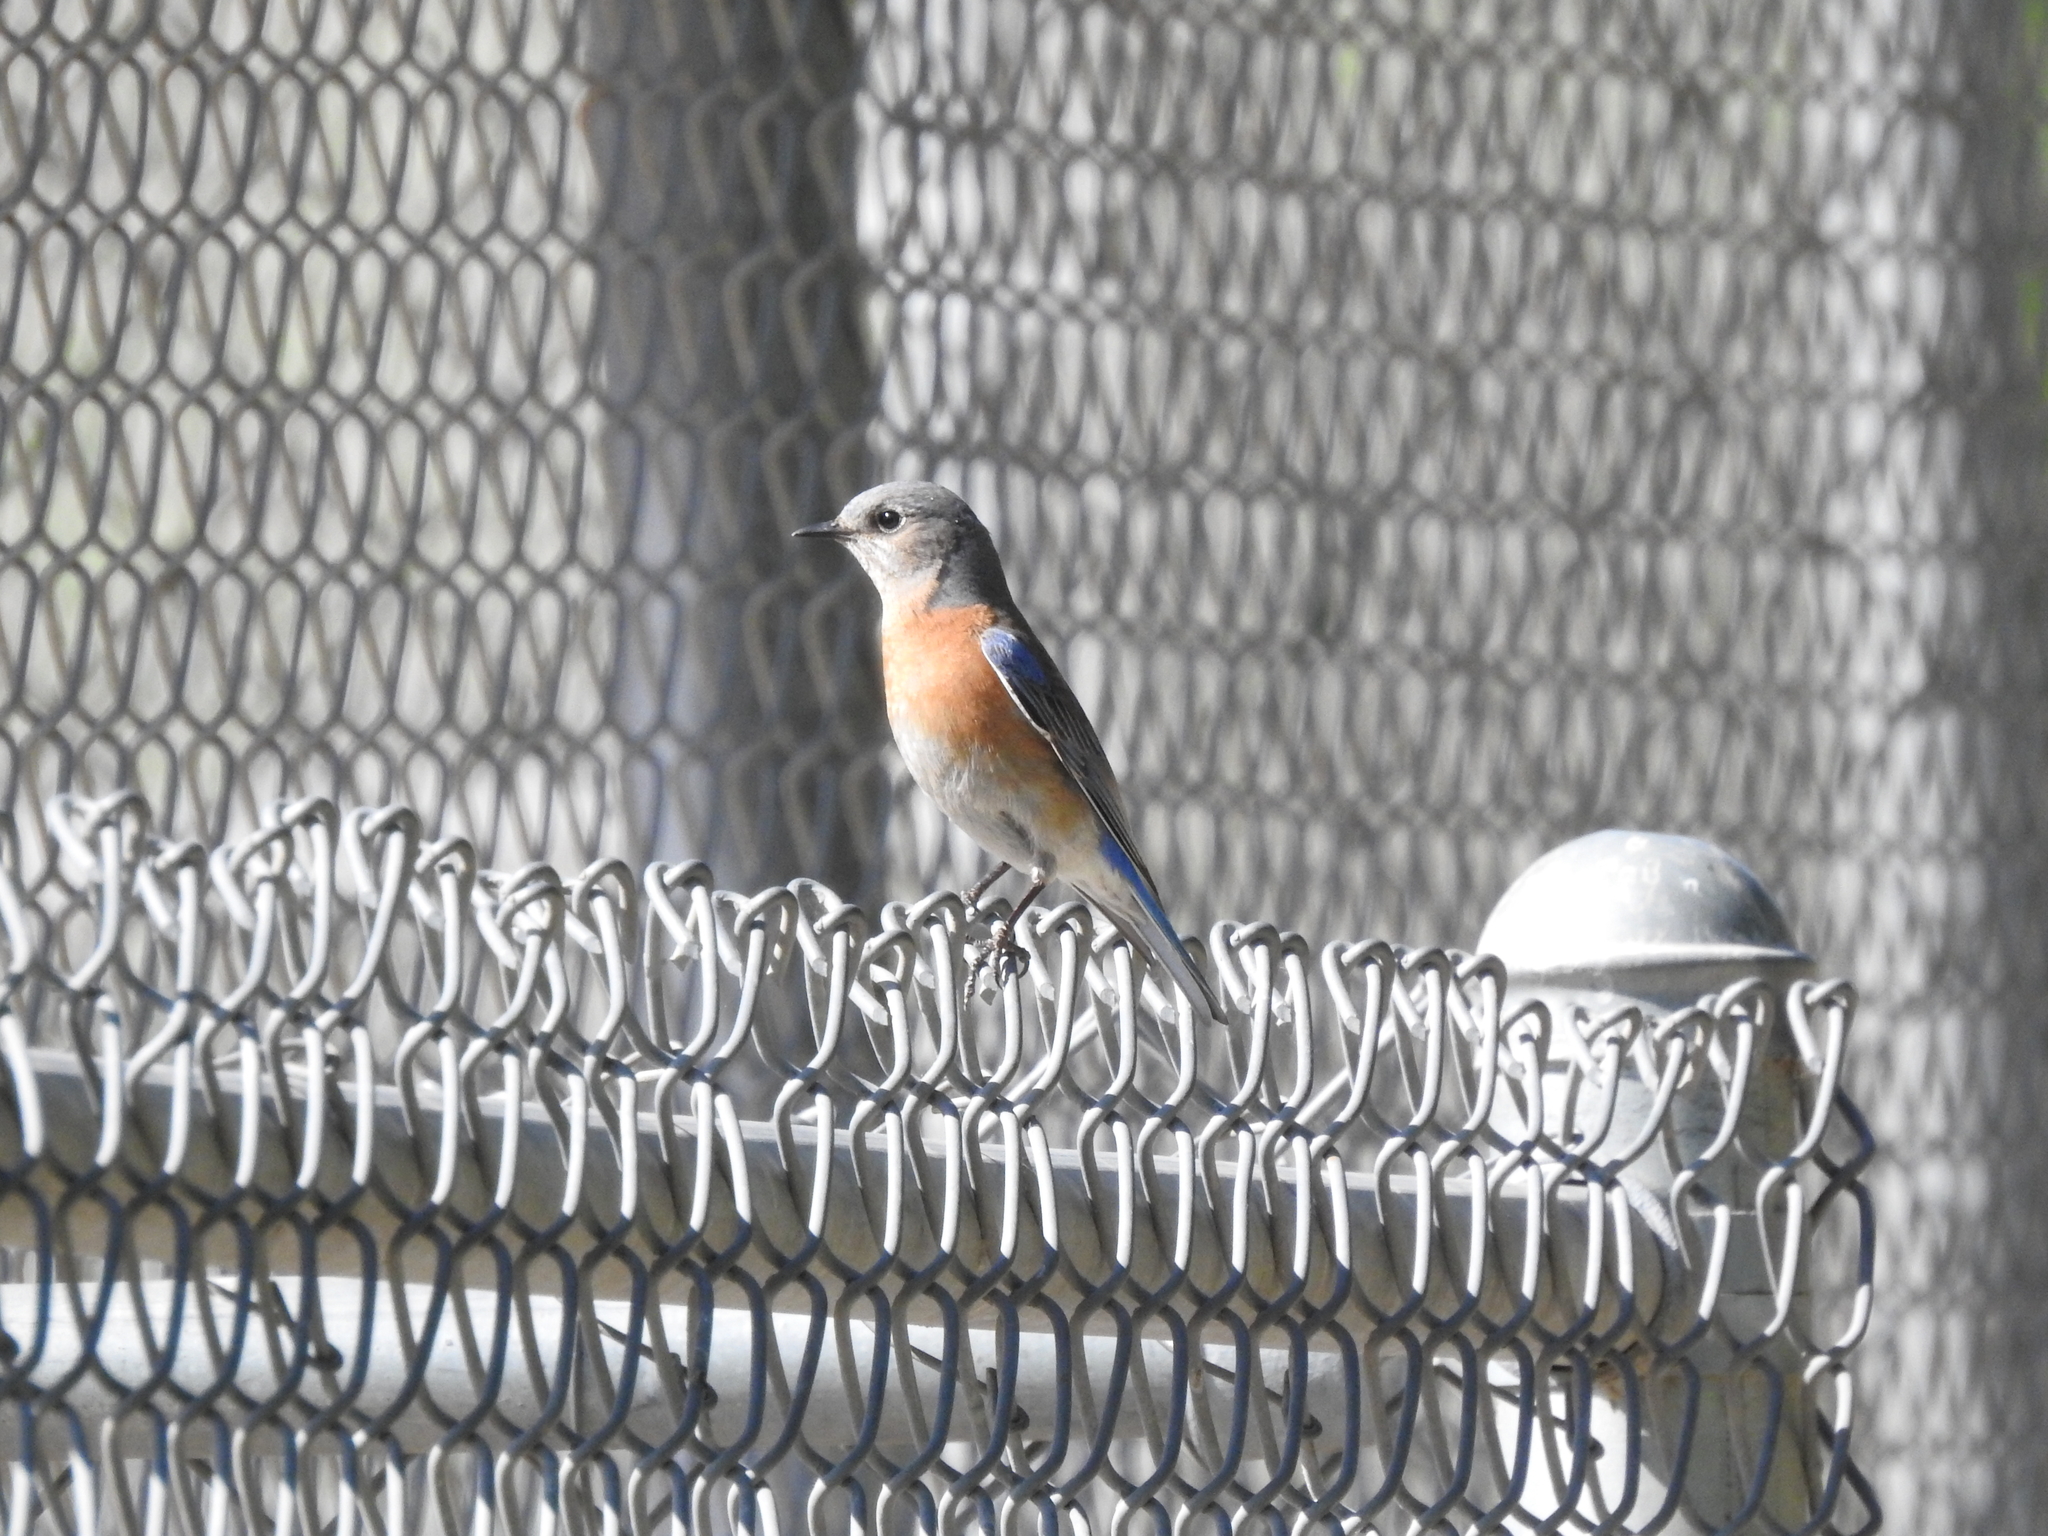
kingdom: Animalia
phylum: Chordata
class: Aves
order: Passeriformes
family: Turdidae
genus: Sialia
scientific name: Sialia mexicana
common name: Western bluebird
